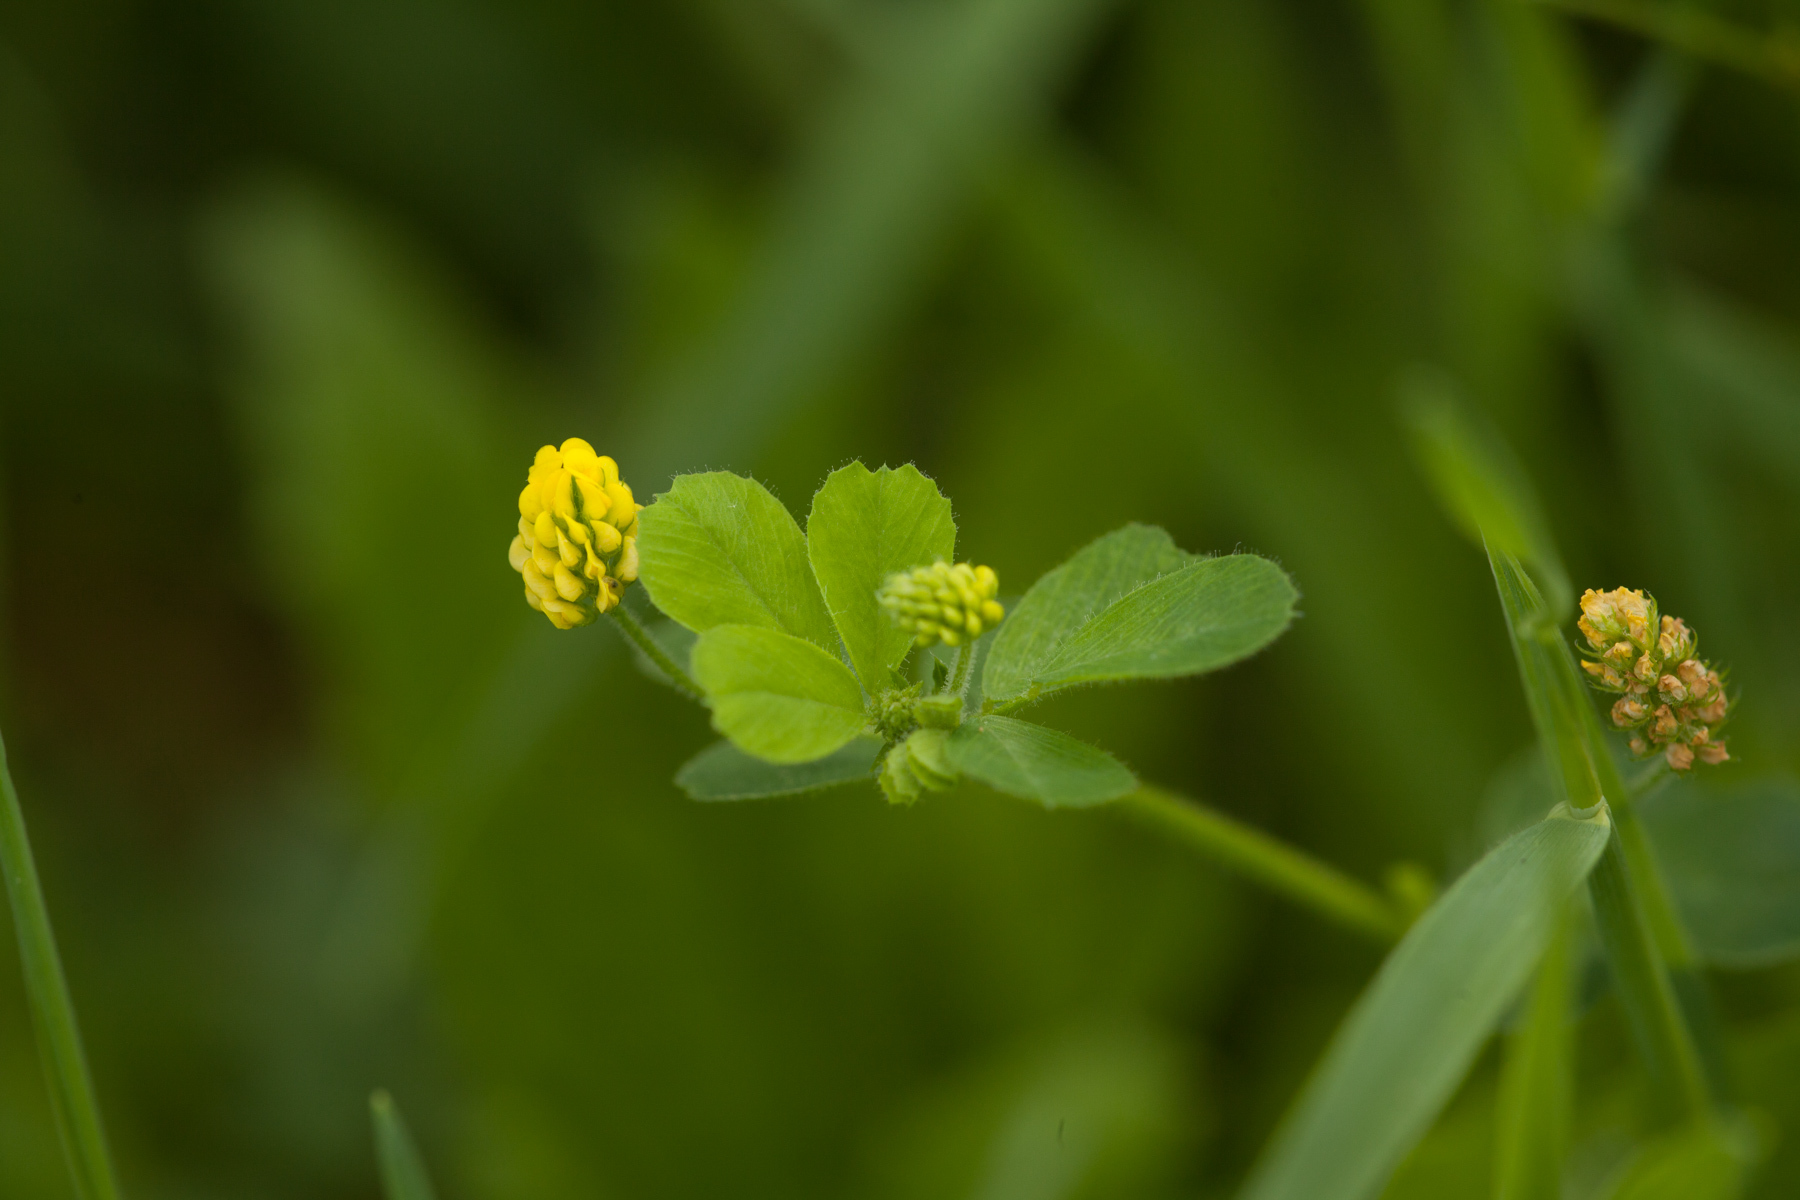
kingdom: Plantae
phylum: Tracheophyta
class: Magnoliopsida
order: Fabales
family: Fabaceae
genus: Medicago
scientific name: Medicago lupulina
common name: Black medick
